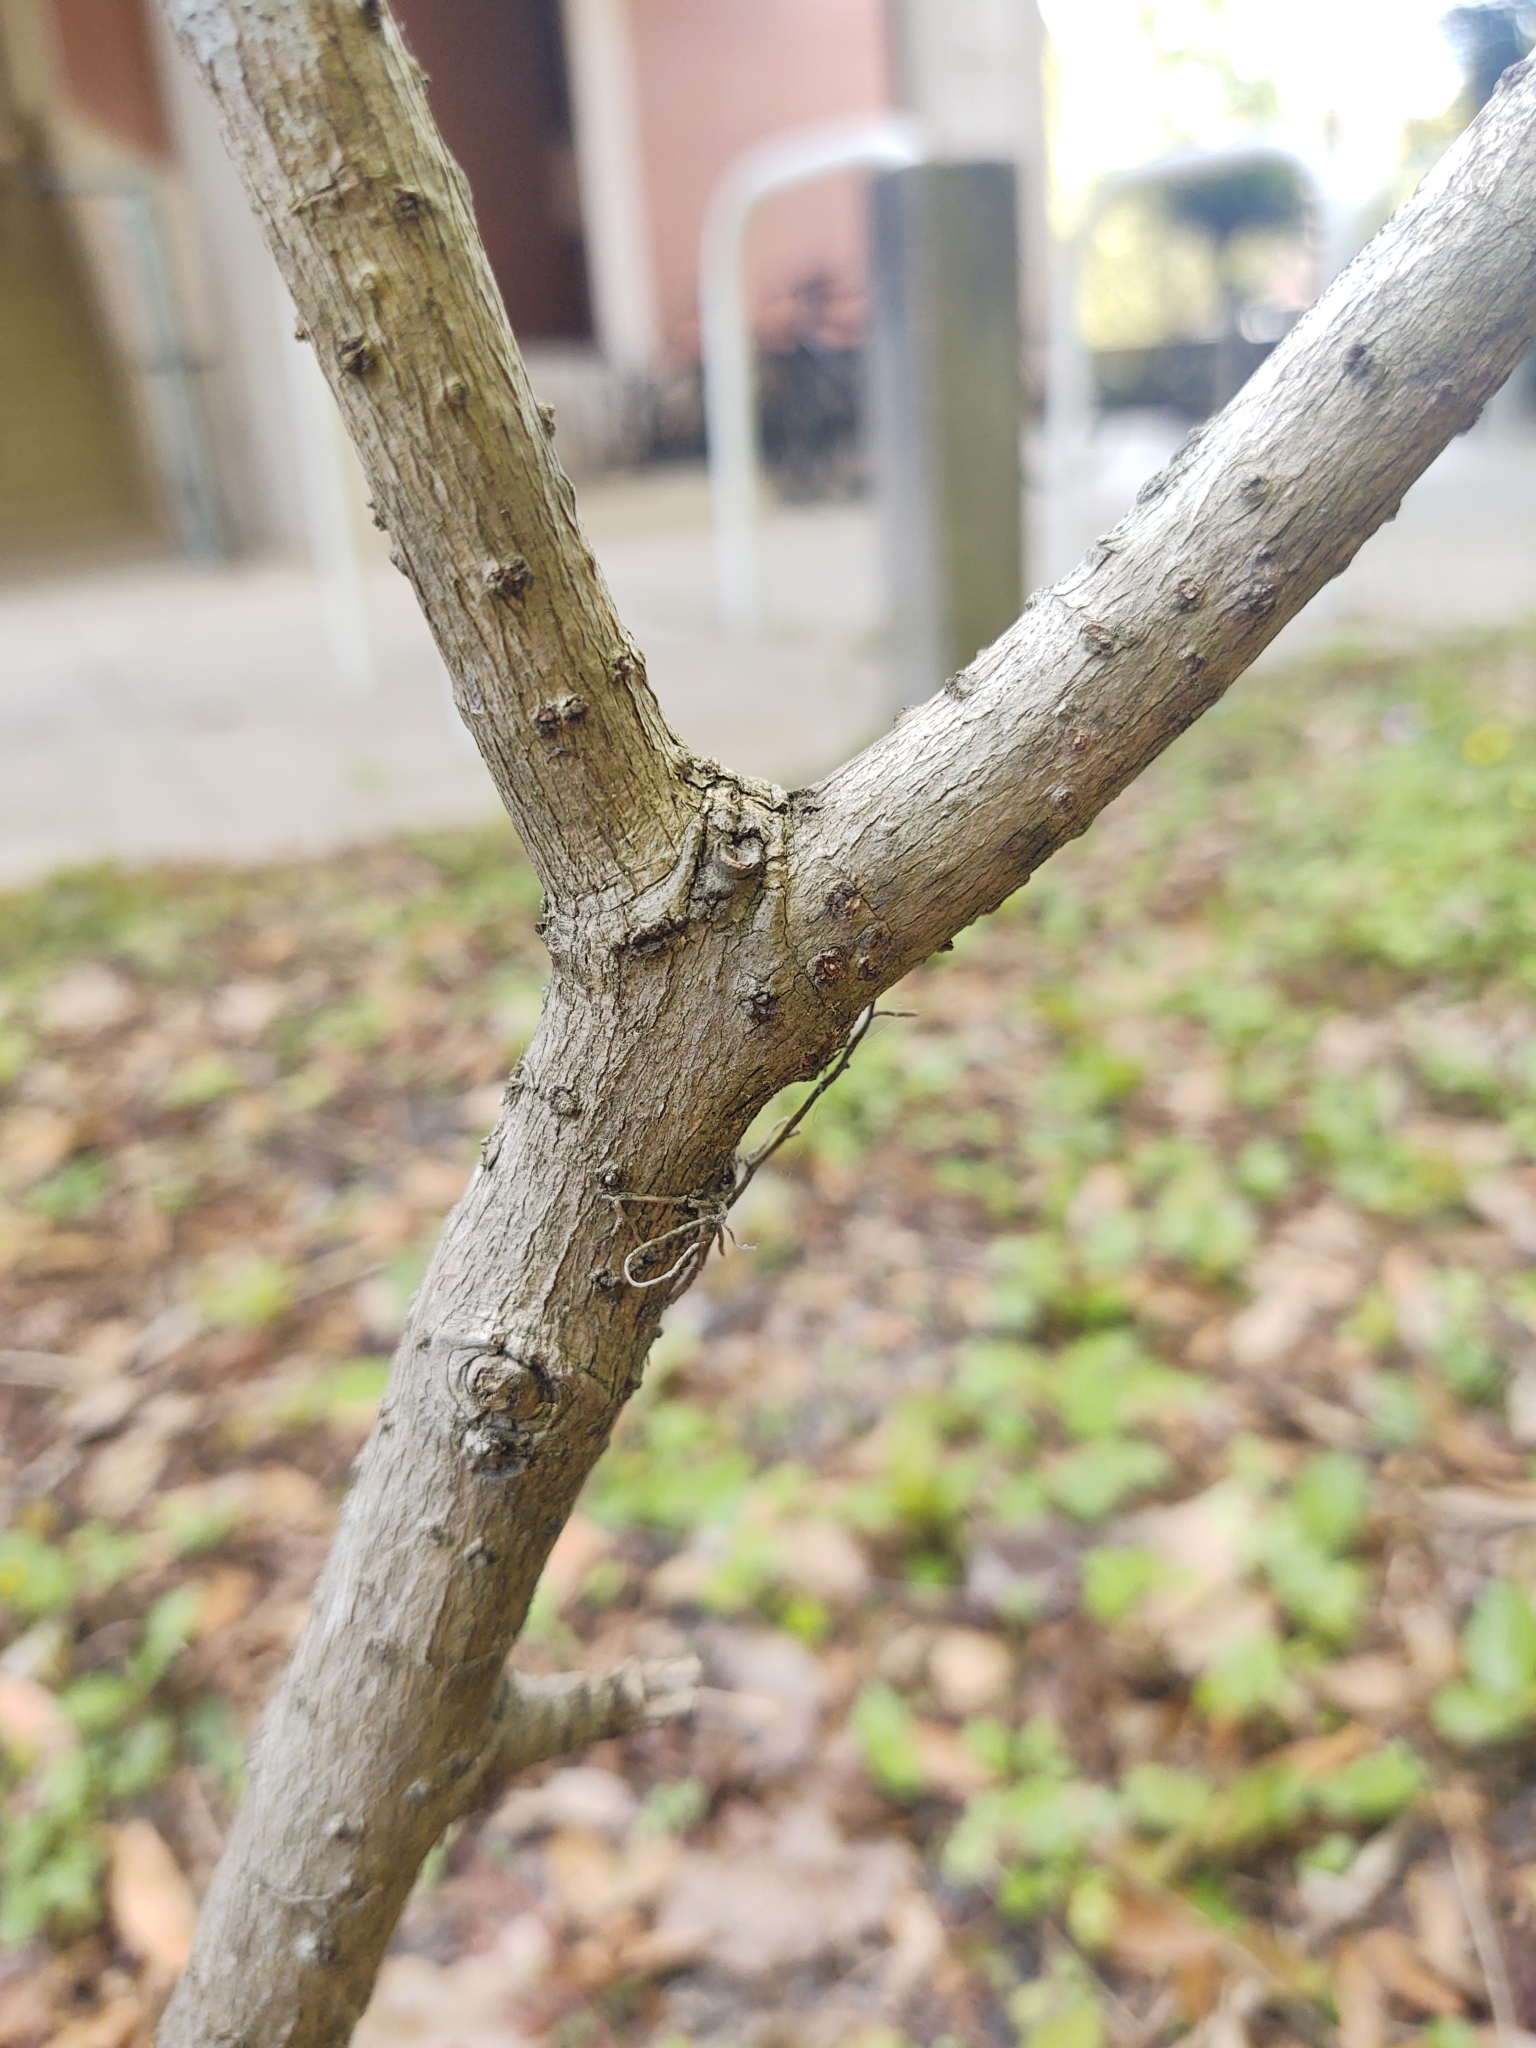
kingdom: Plantae
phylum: Tracheophyta
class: Magnoliopsida
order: Lamiales
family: Oleaceae
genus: Chionanthus
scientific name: Chionanthus virginicus
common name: American fringetree
